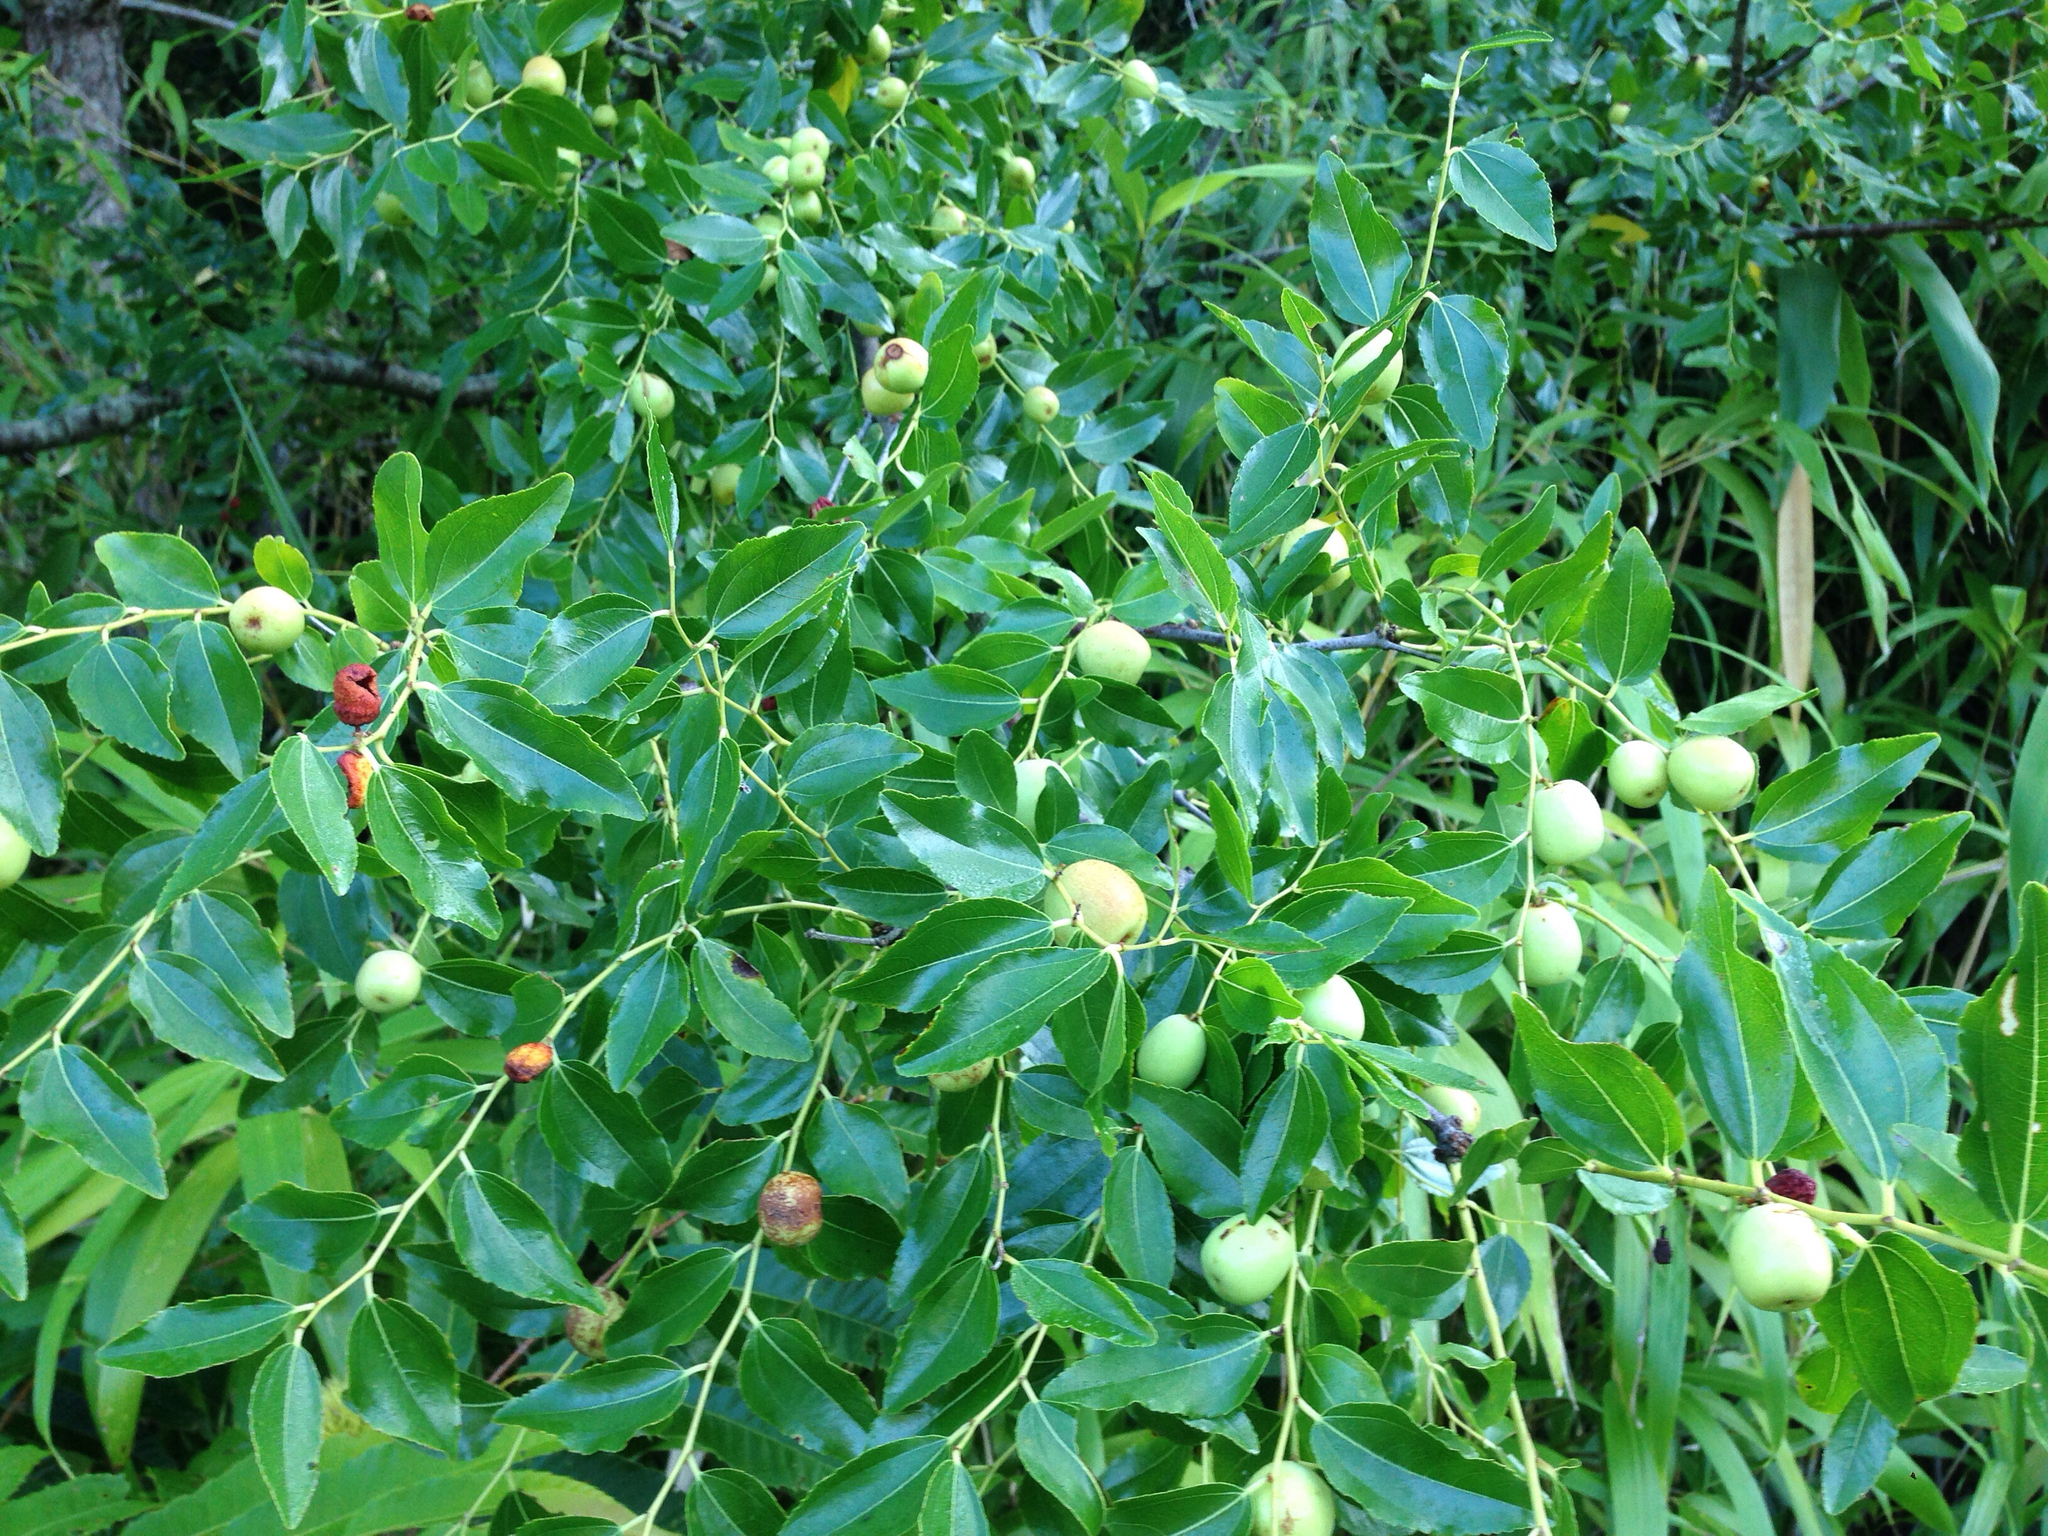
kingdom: Plantae
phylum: Tracheophyta
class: Magnoliopsida
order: Rosales
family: Rhamnaceae
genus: Ziziphus
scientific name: Ziziphus jujuba
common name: Jujube red date
